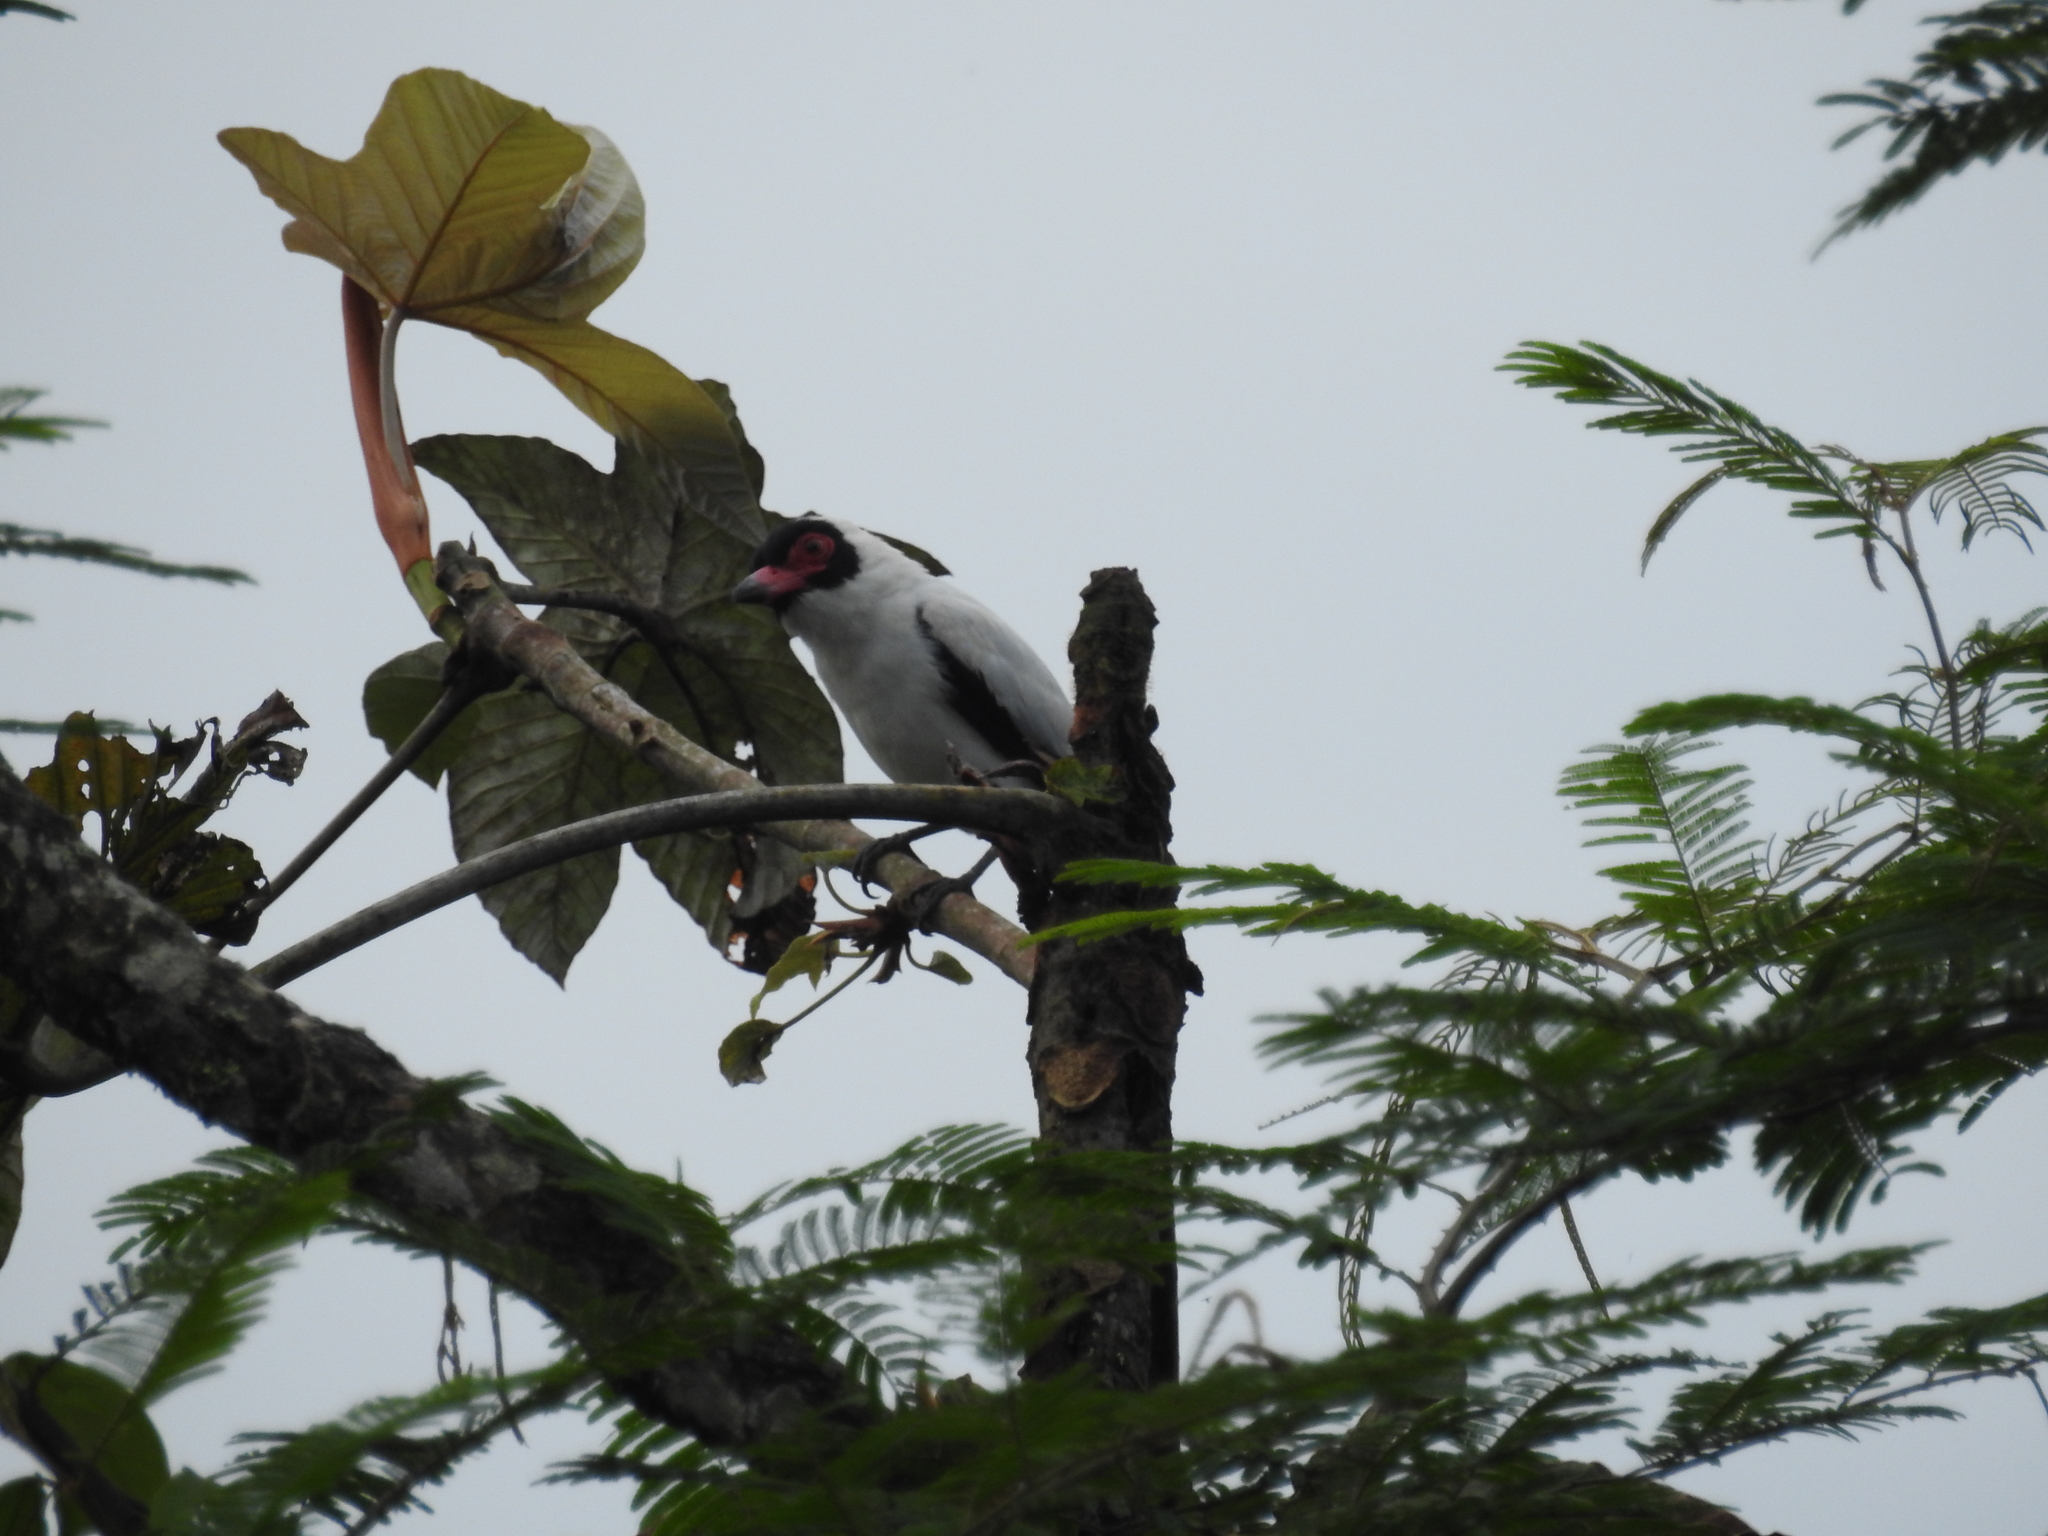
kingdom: Animalia
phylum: Chordata
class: Aves
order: Passeriformes
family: Cotingidae
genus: Tityra
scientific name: Tityra semifasciata
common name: Masked tityra
